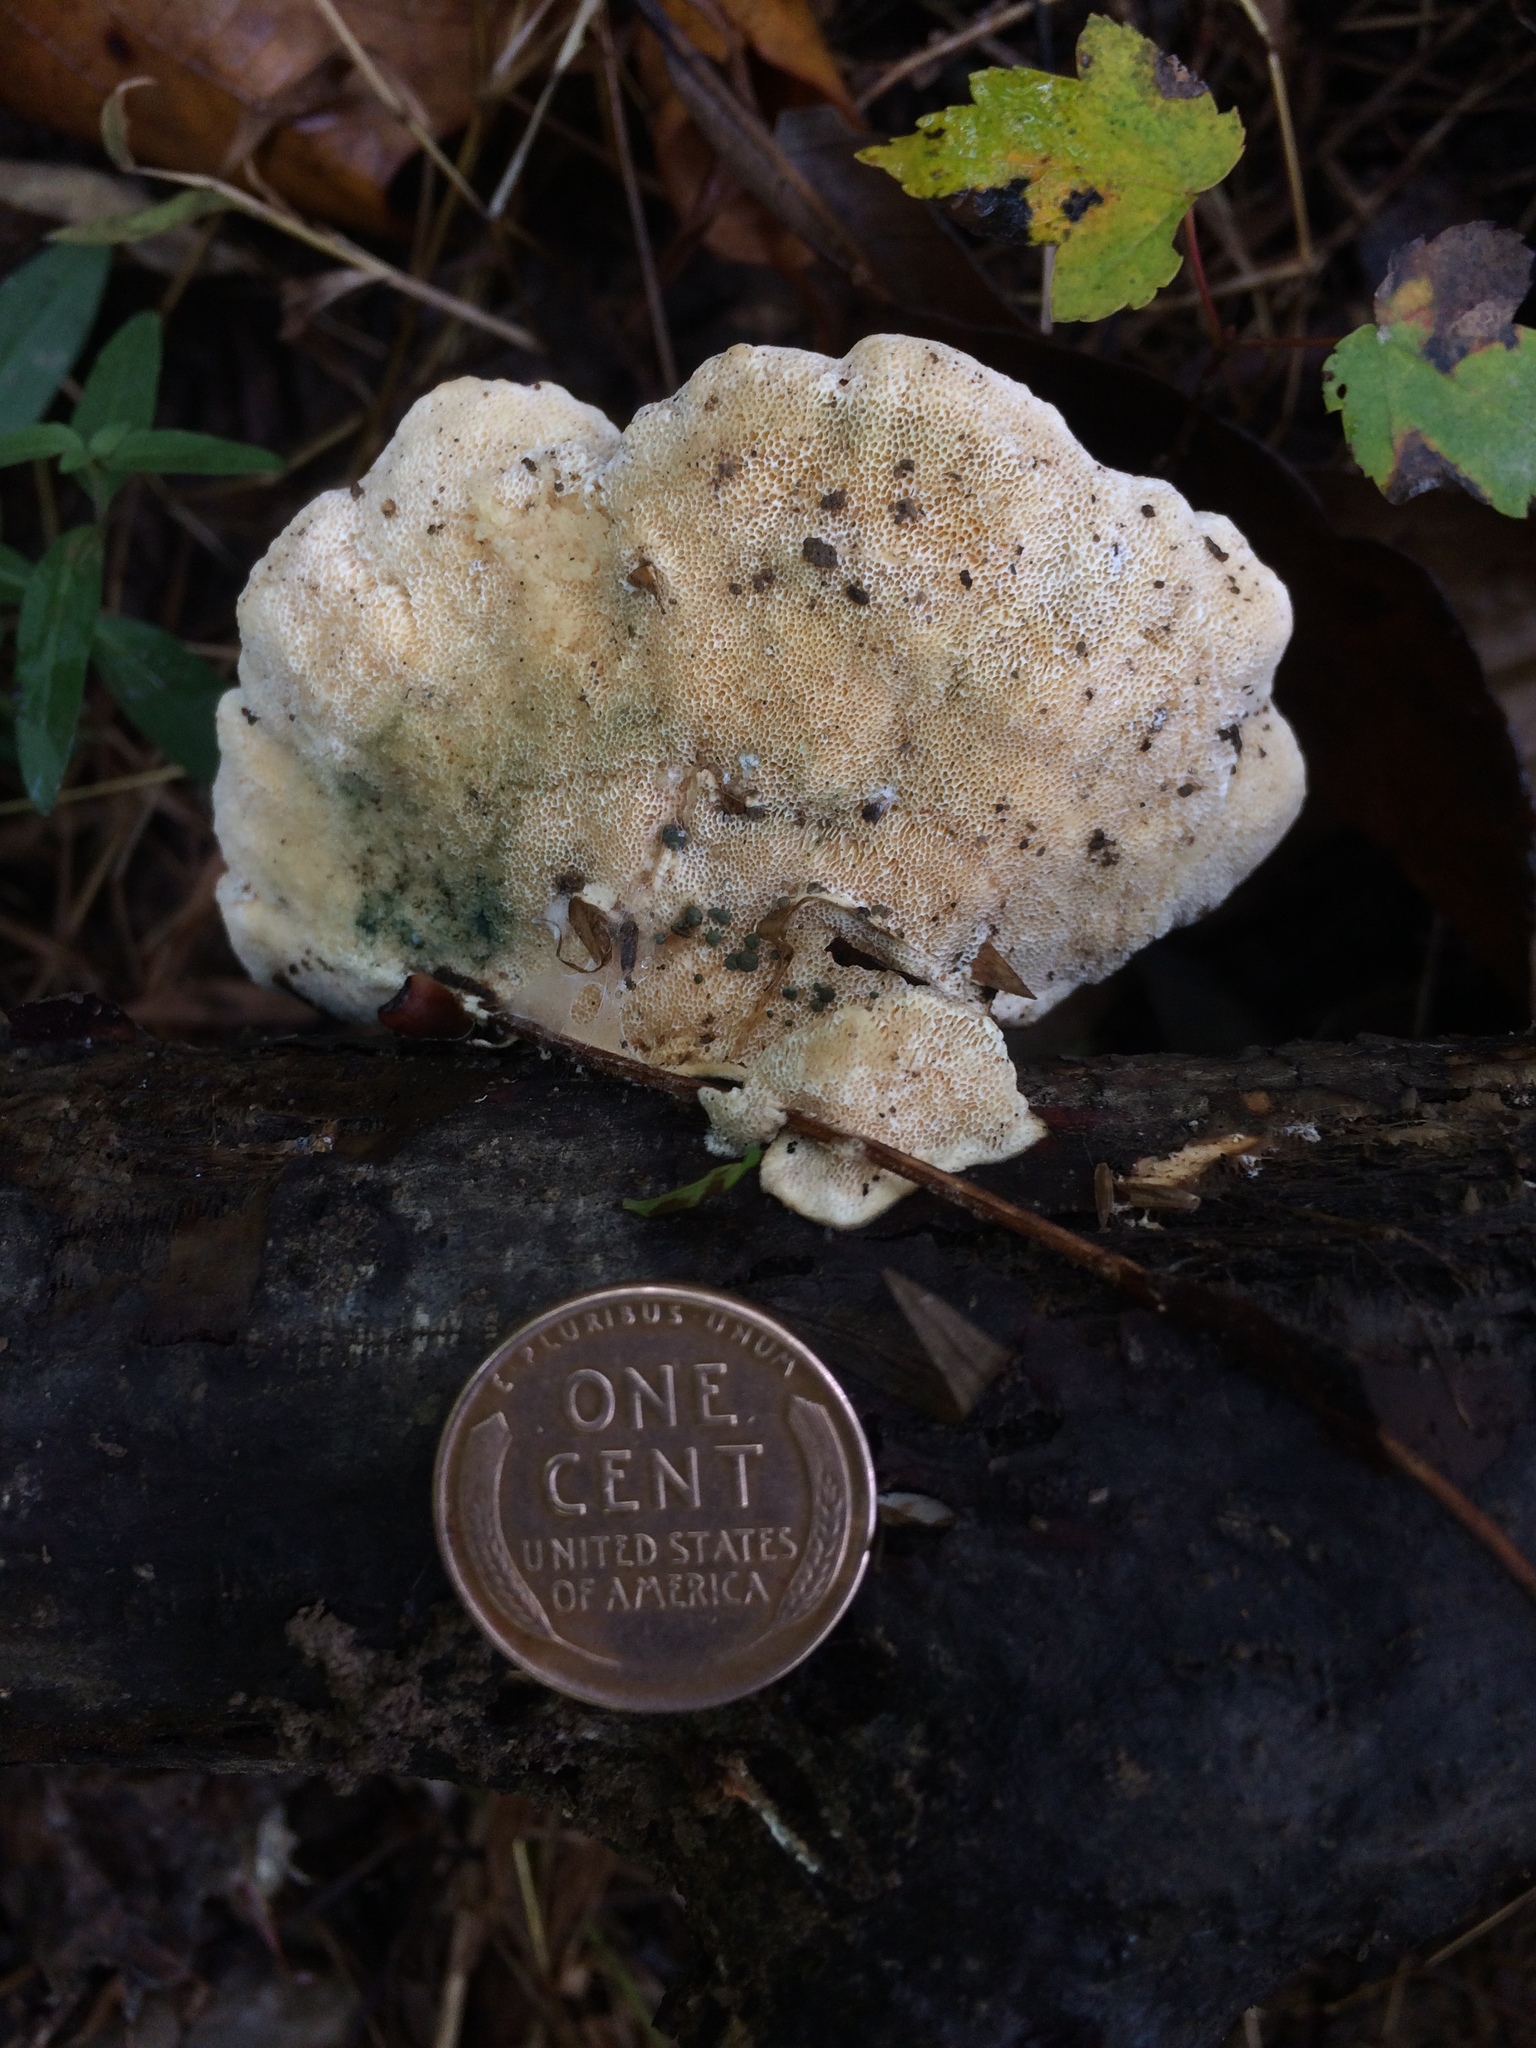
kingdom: Fungi
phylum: Basidiomycota
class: Agaricomycetes
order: Polyporales
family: Polyporaceae
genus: Trametes
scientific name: Trametes versicolor
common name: Turkeytail
